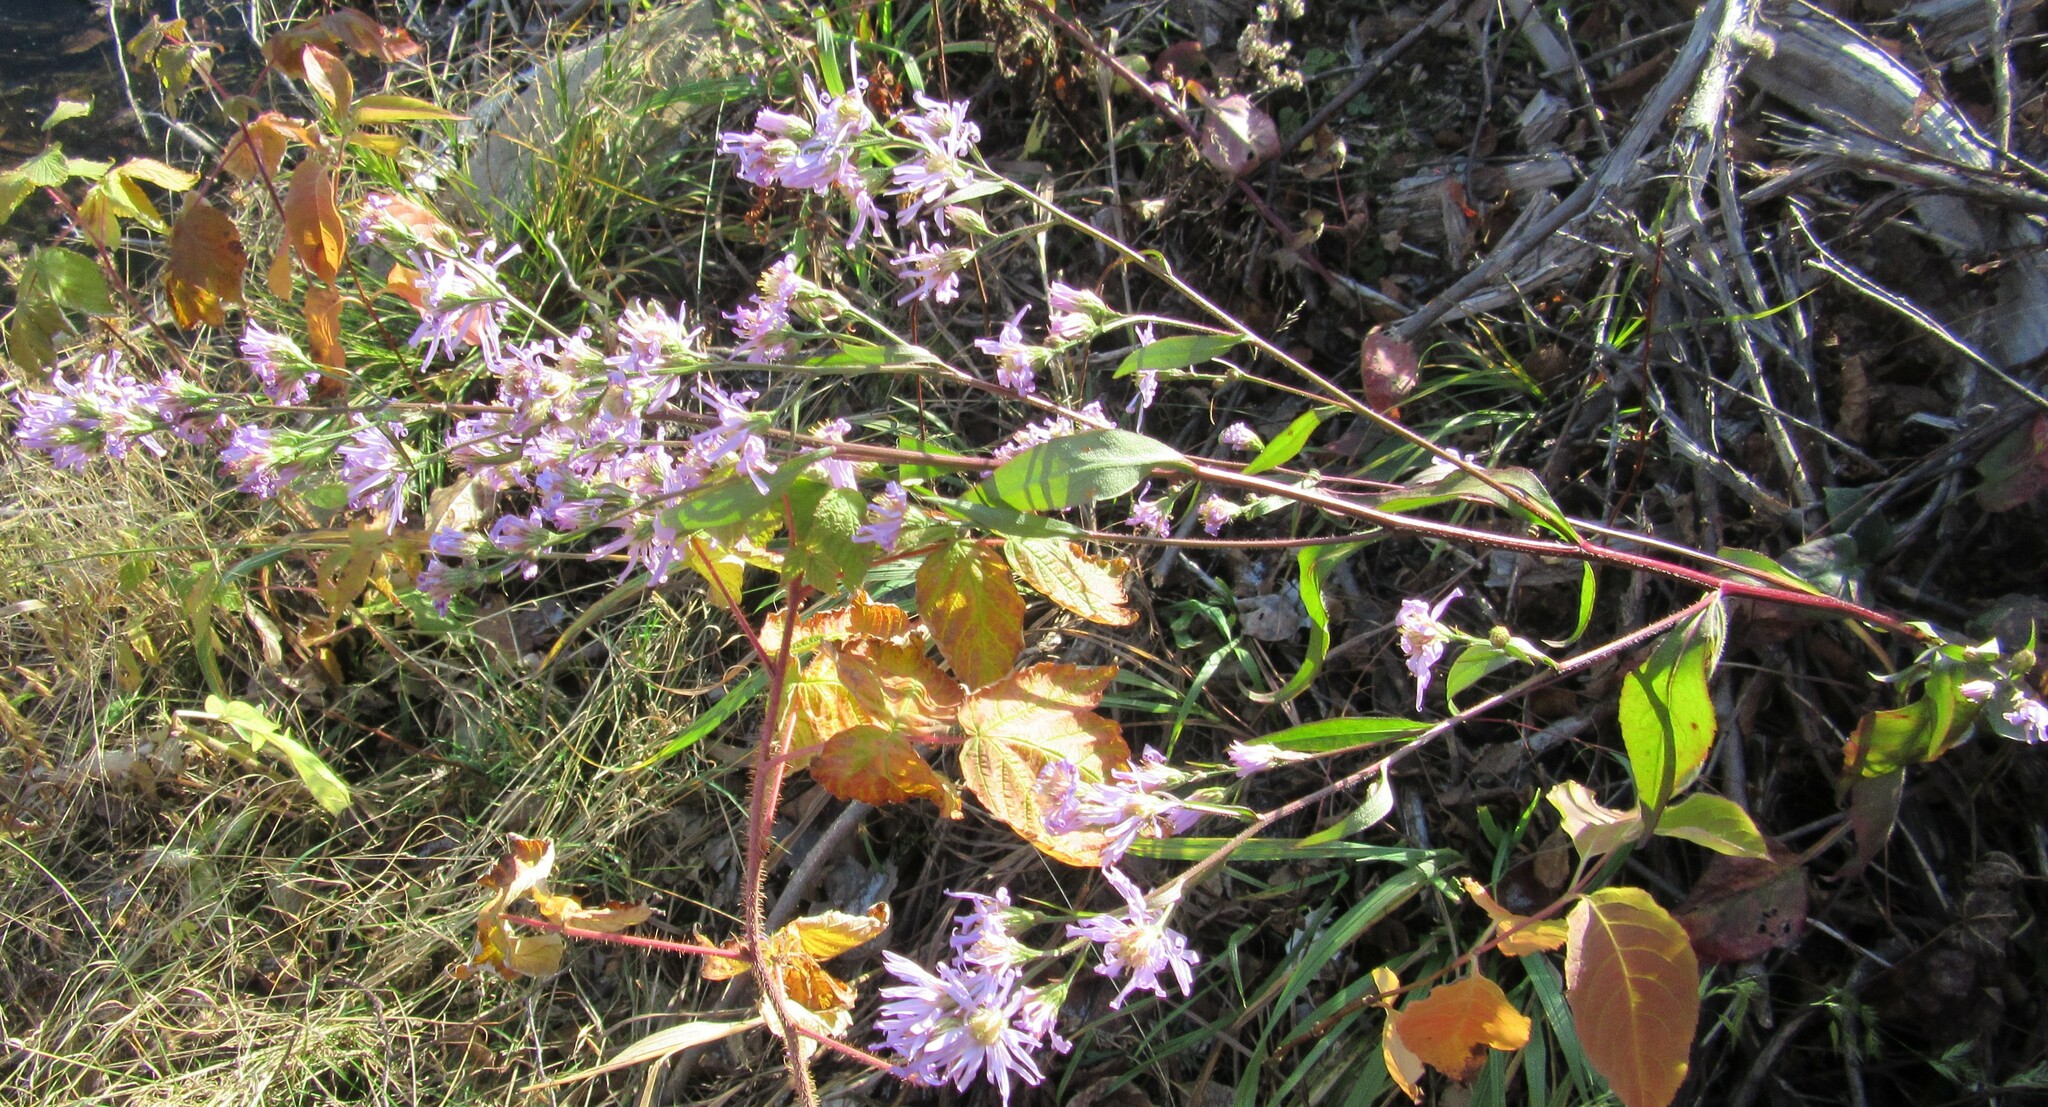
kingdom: Plantae
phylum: Tracheophyta
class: Magnoliopsida
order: Asterales
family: Asteraceae
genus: Symphyotrichum
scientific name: Symphyotrichum ciliolatum
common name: Fringed blue aster
